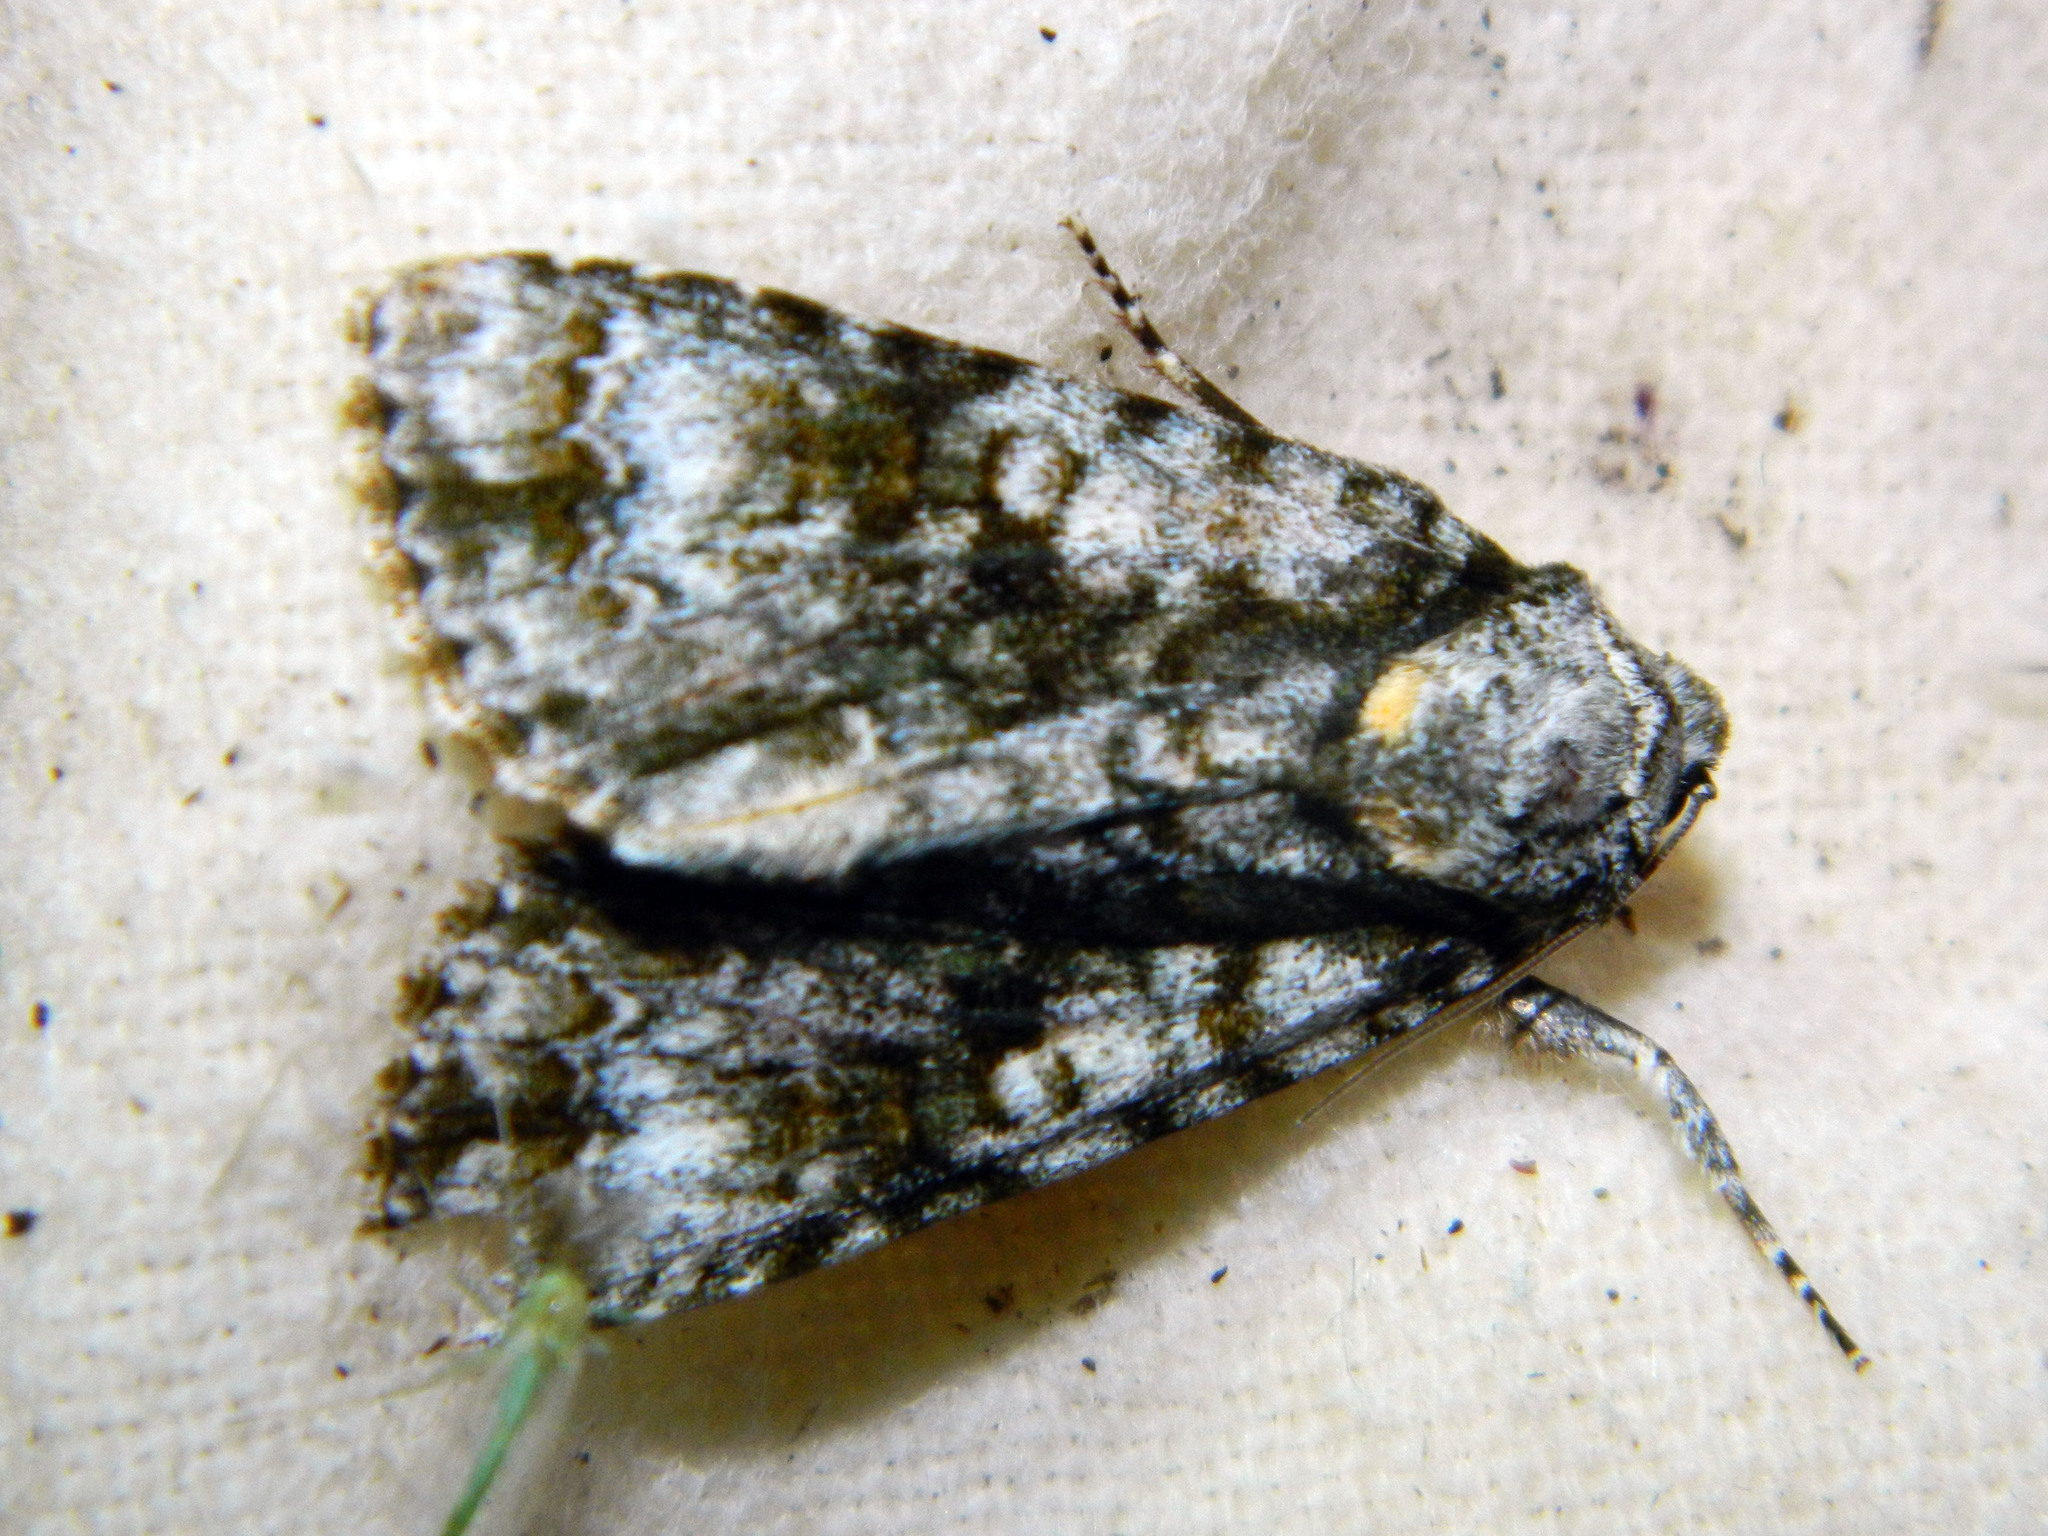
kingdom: Animalia
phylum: Arthropoda
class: Insecta
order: Lepidoptera
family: Noctuidae
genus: Acronicta
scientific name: Acronicta superans
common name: Splendid dagger
